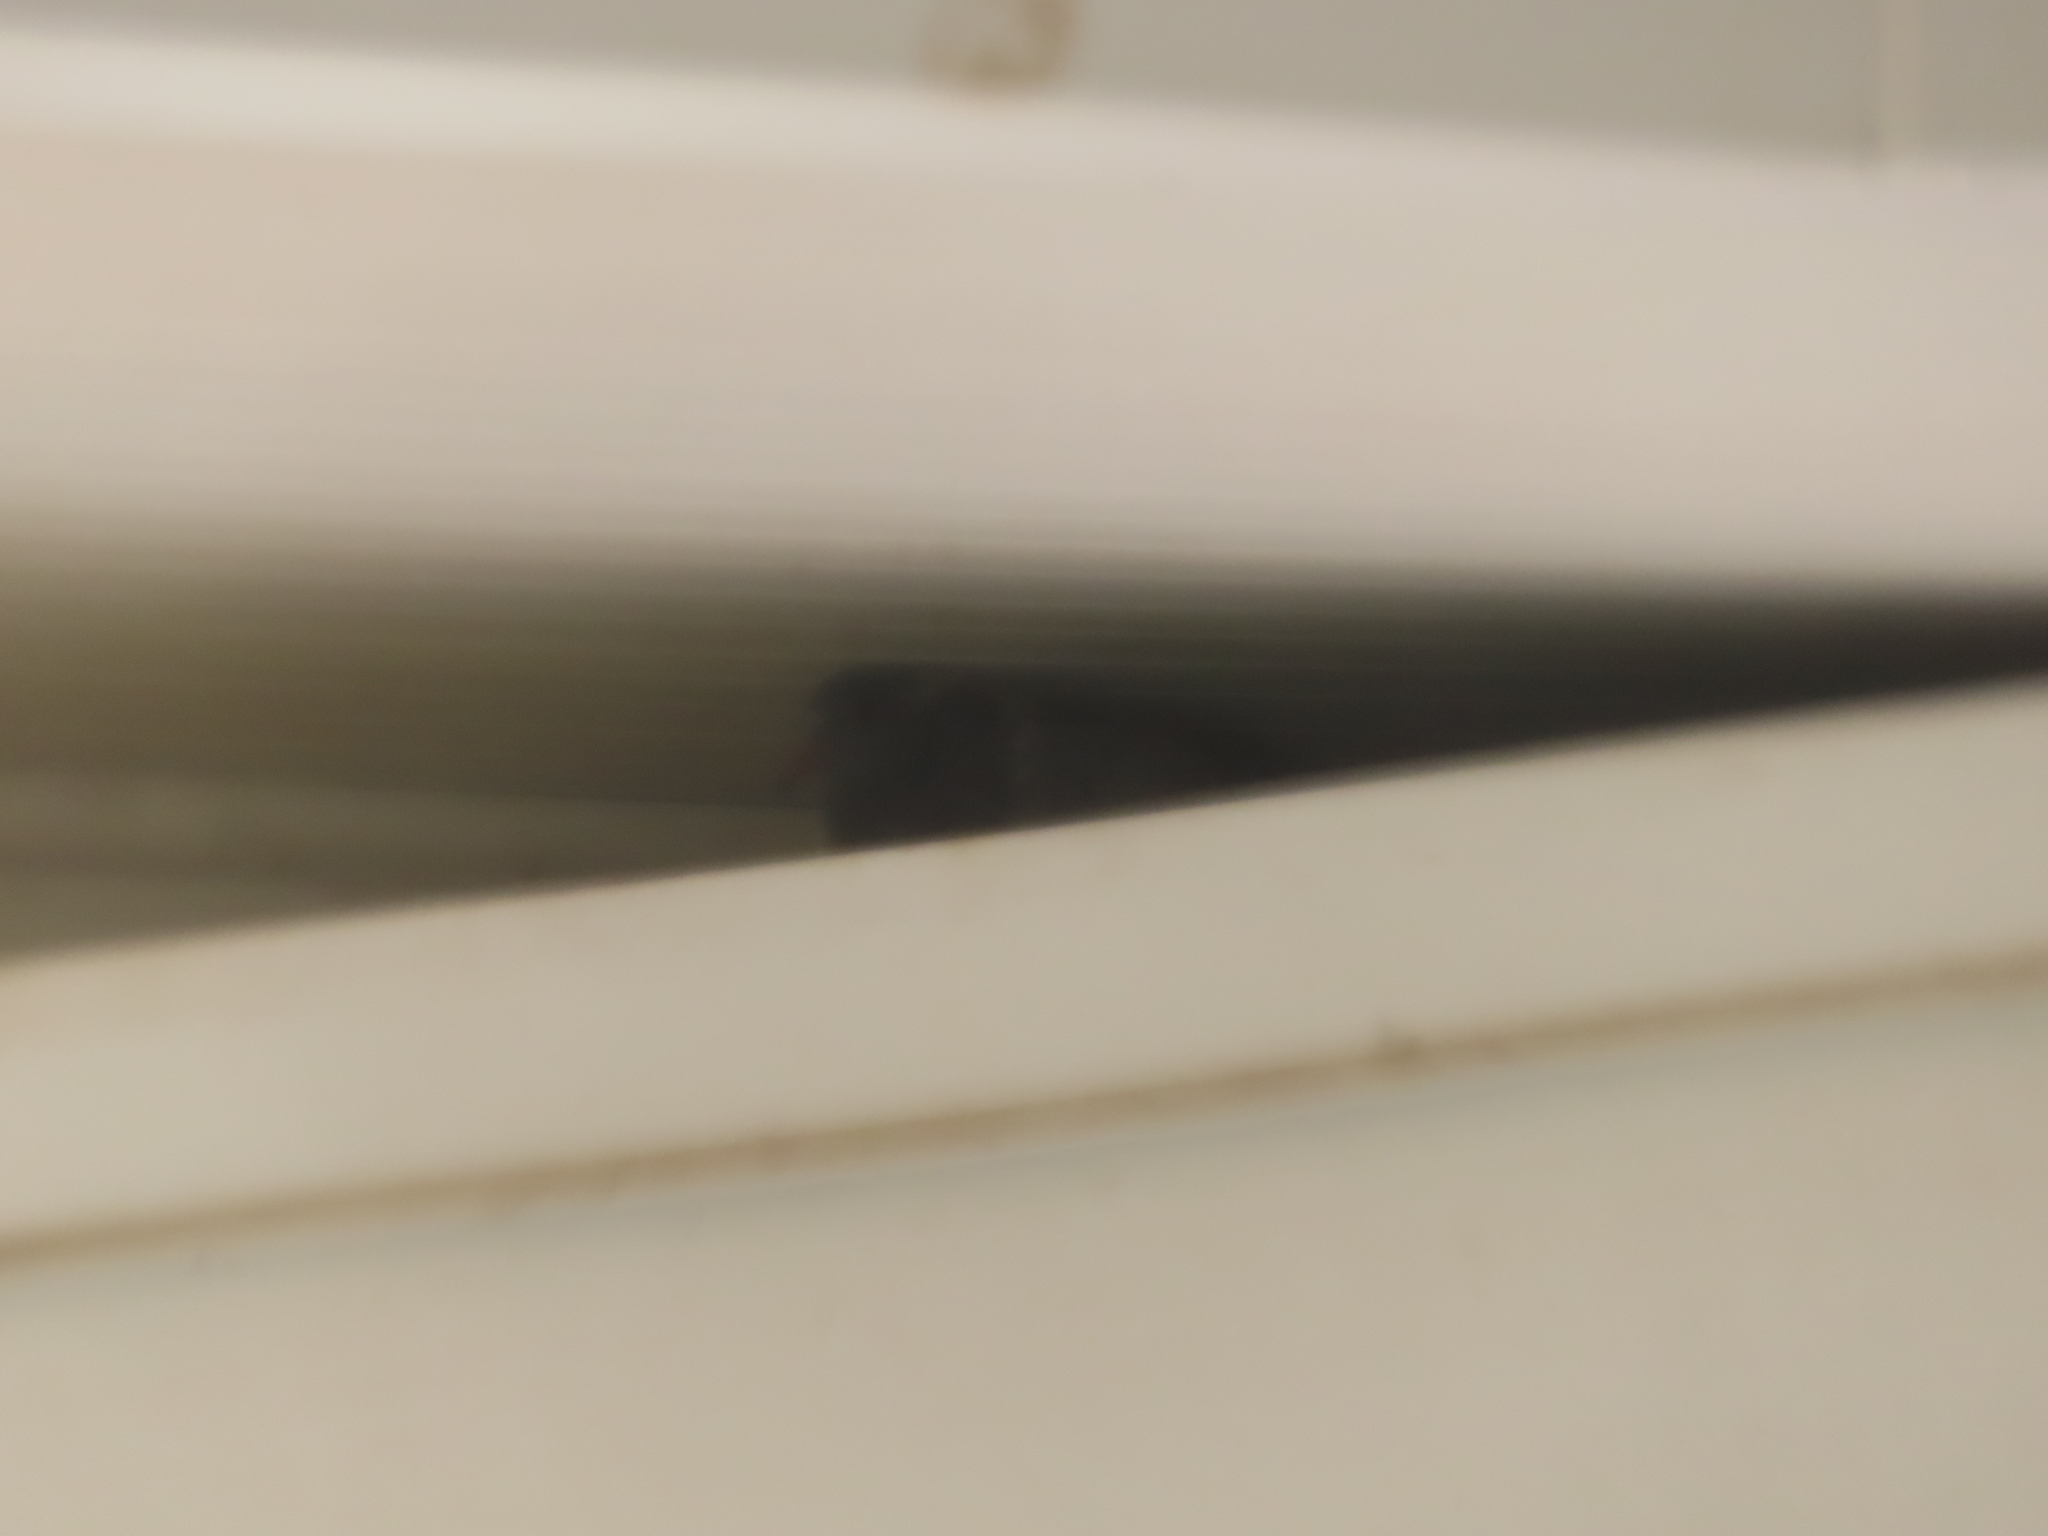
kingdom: Animalia
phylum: Chordata
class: Aves
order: Columbiformes
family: Columbidae
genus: Columba
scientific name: Columba livia
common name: Rock pigeon
